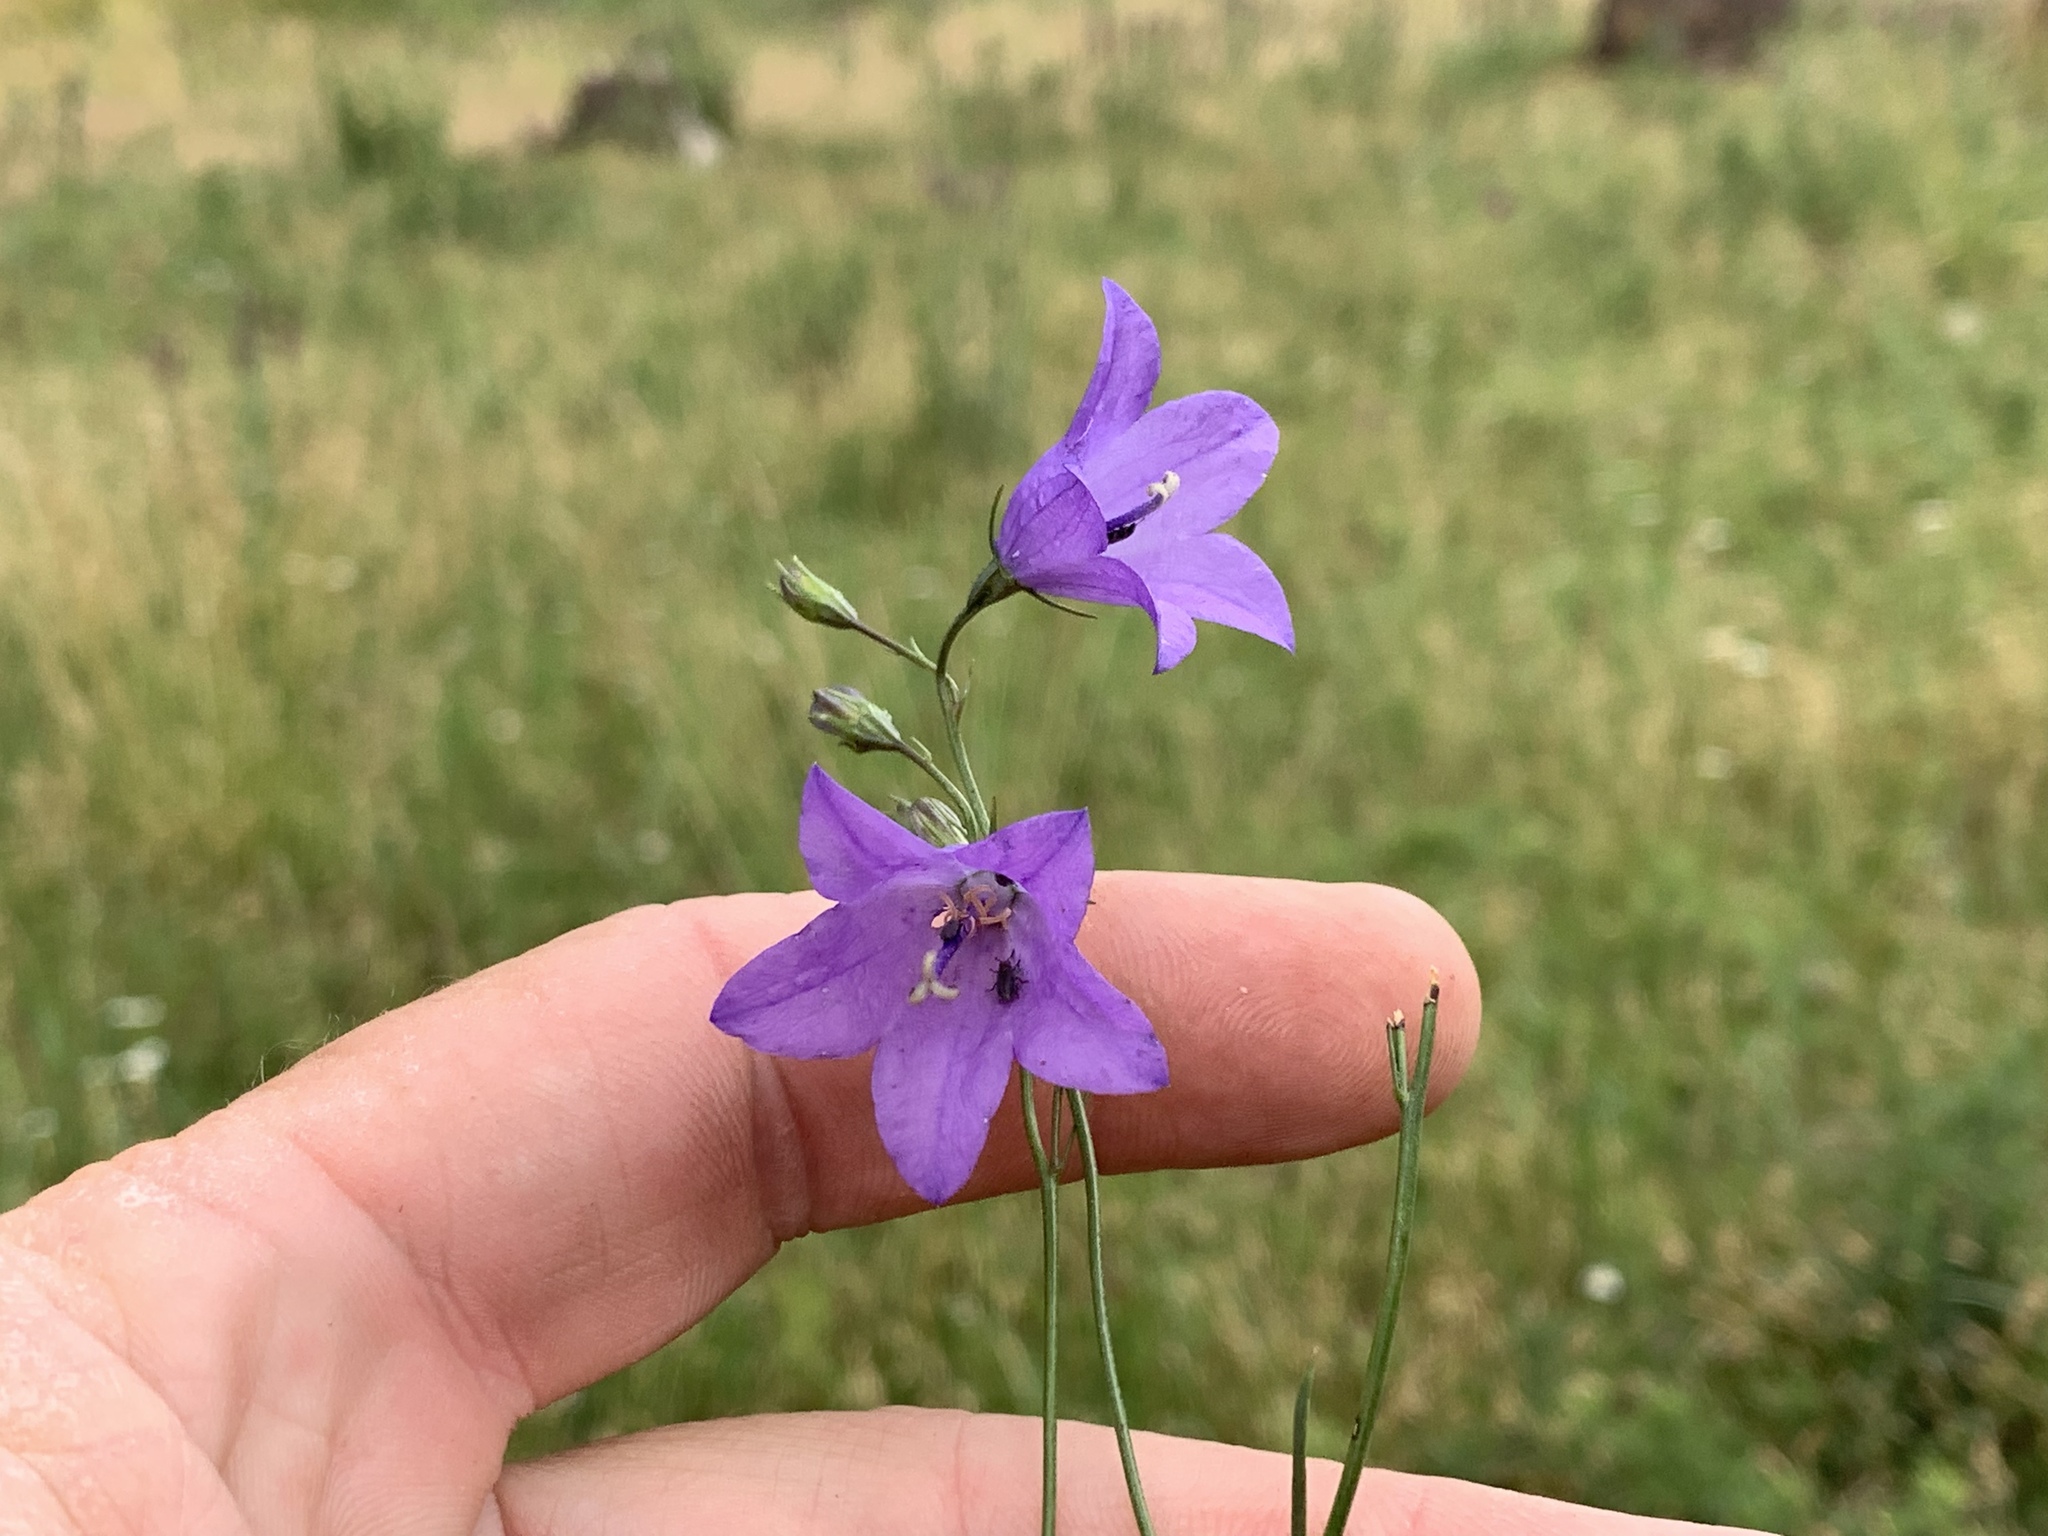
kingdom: Plantae
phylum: Tracheophyta
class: Magnoliopsida
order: Asterales
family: Campanulaceae
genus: Campanula
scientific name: Campanula petiolata
